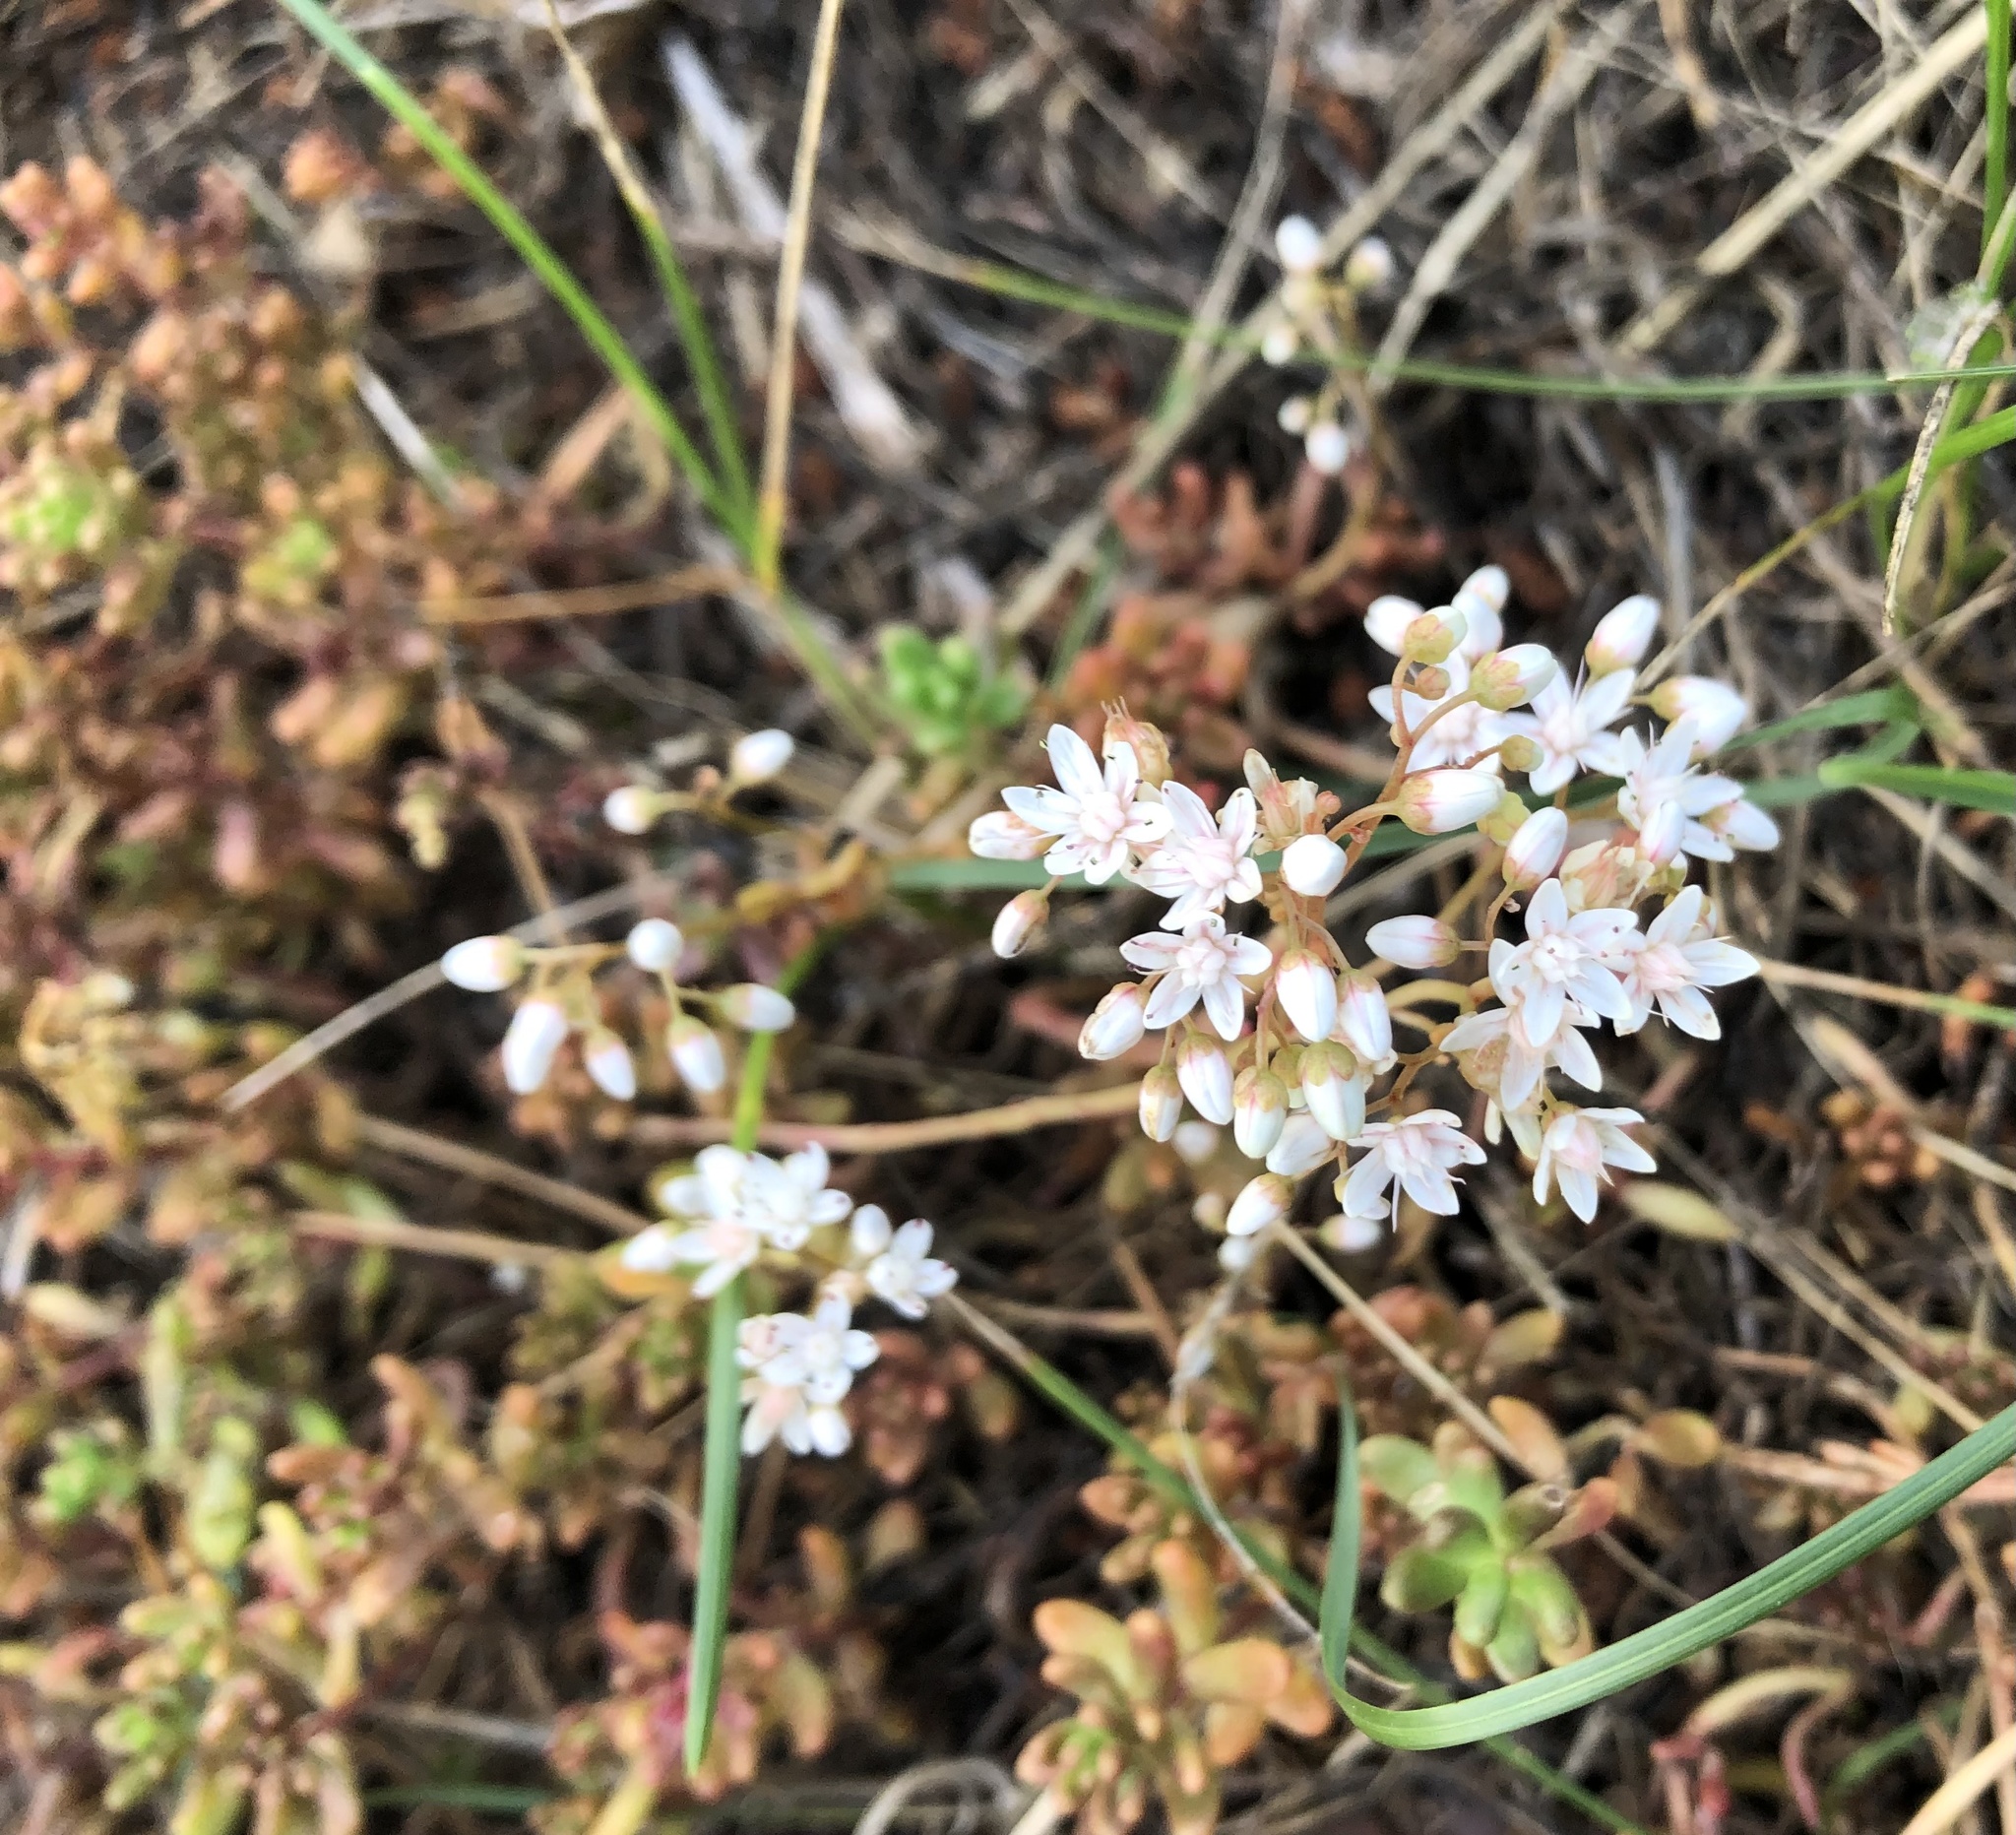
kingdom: Plantae
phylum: Tracheophyta
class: Magnoliopsida
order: Saxifragales
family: Crassulaceae
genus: Sedum
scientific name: Sedum album
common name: White stonecrop
